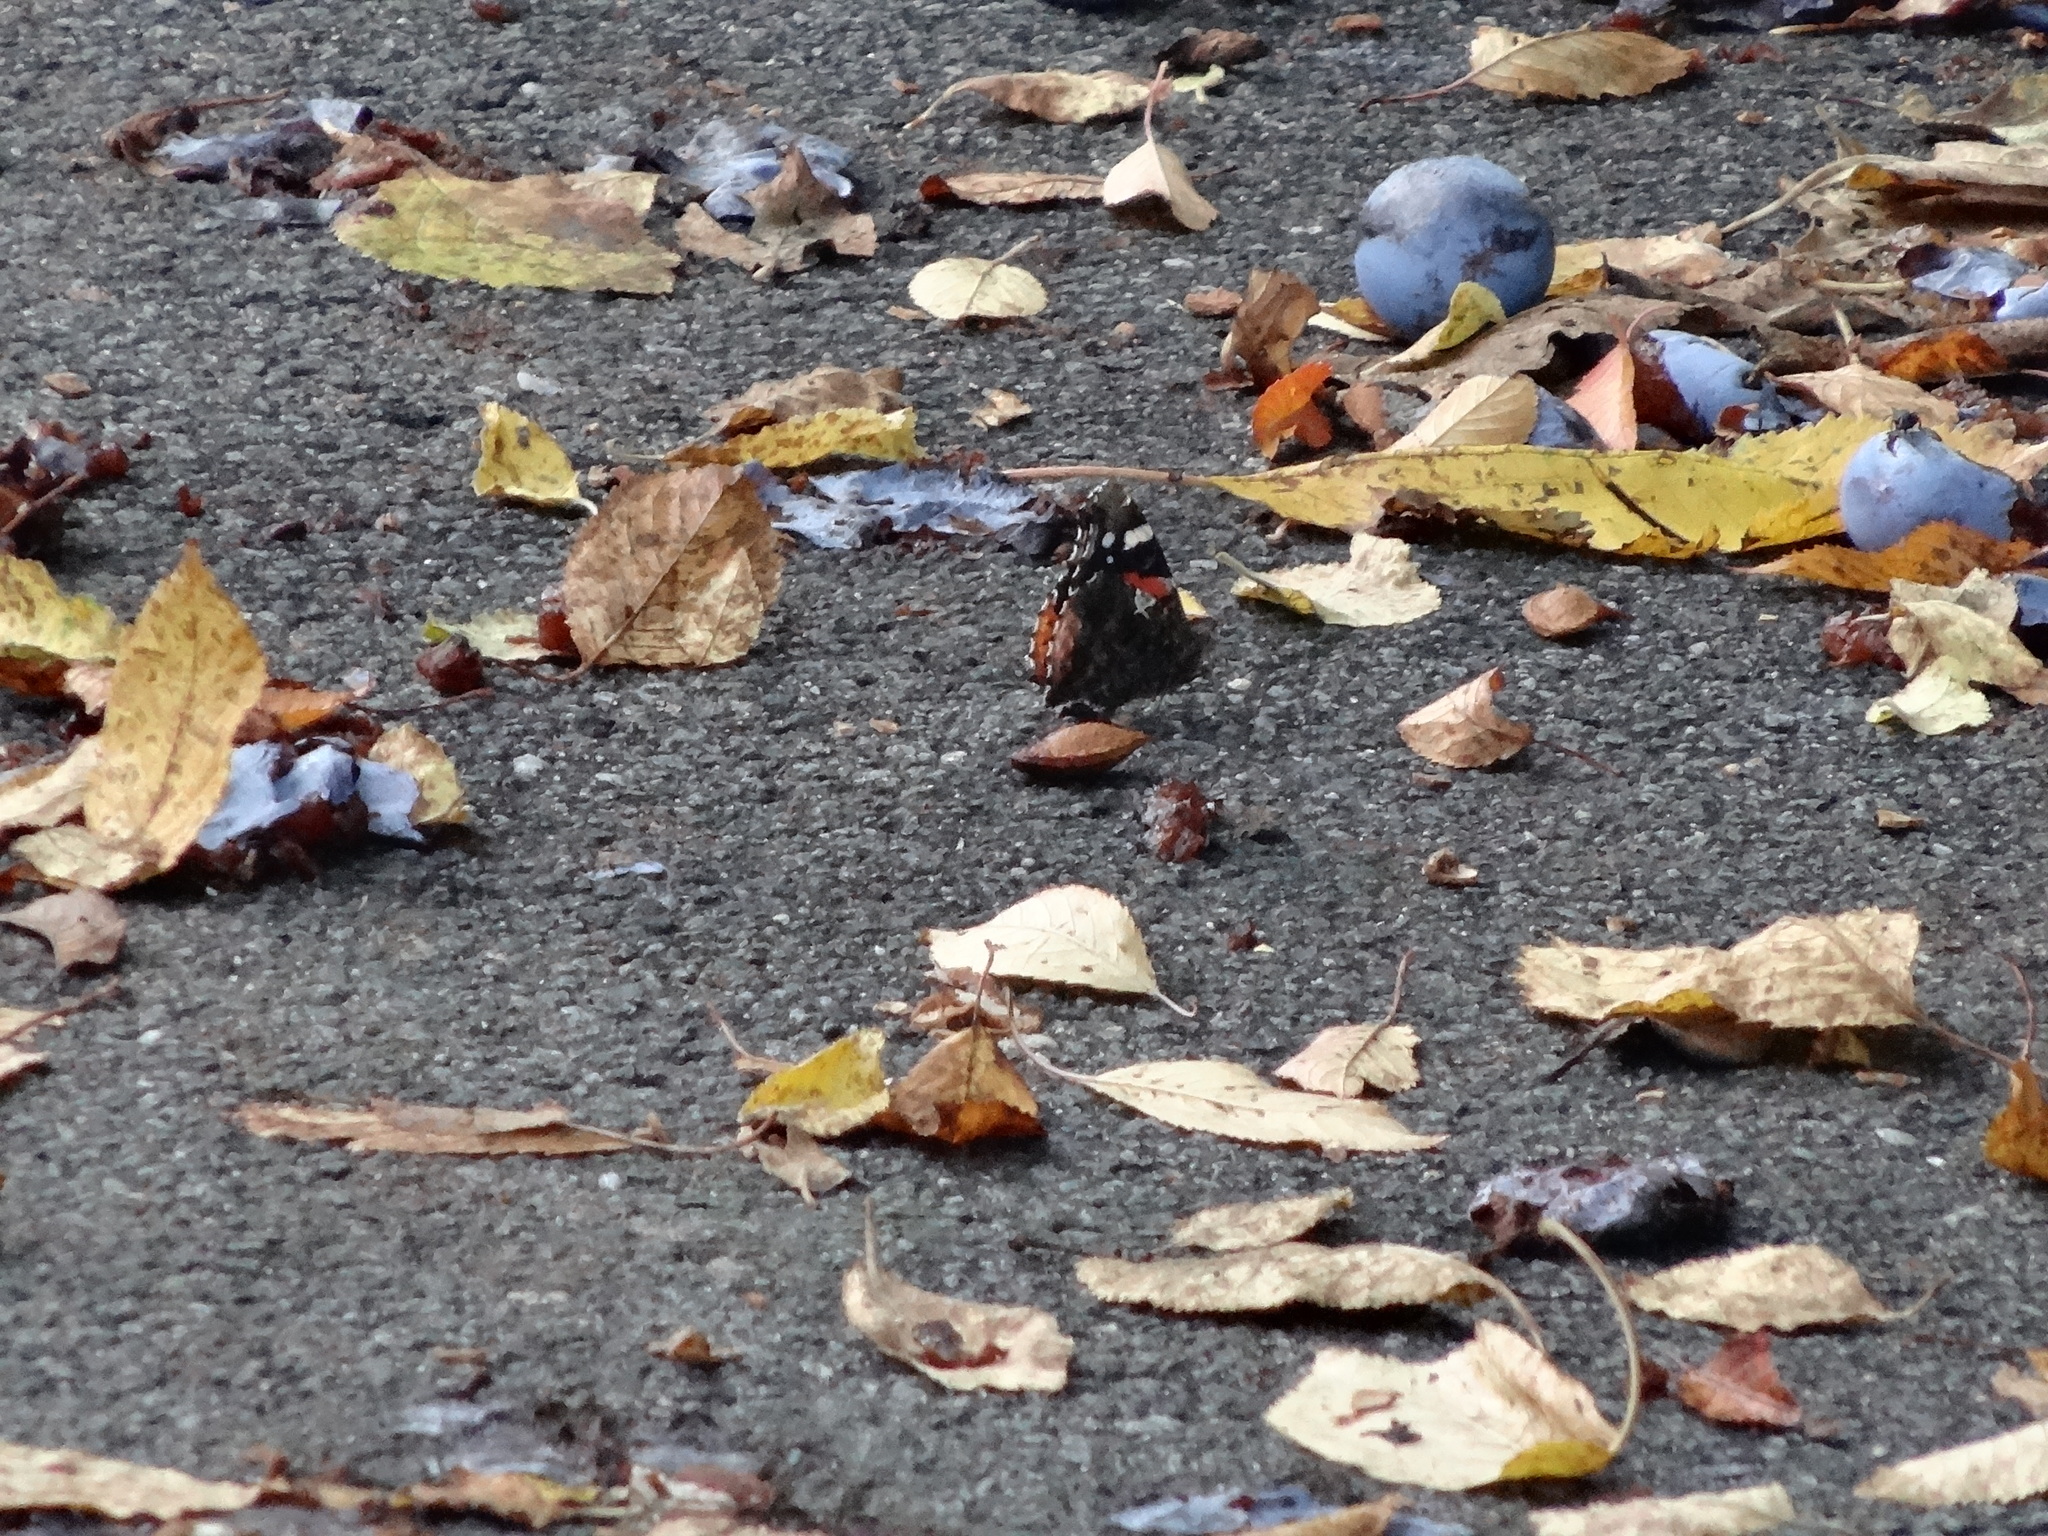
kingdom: Animalia
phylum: Arthropoda
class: Insecta
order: Lepidoptera
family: Nymphalidae
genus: Vanessa
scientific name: Vanessa atalanta
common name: Red admiral
